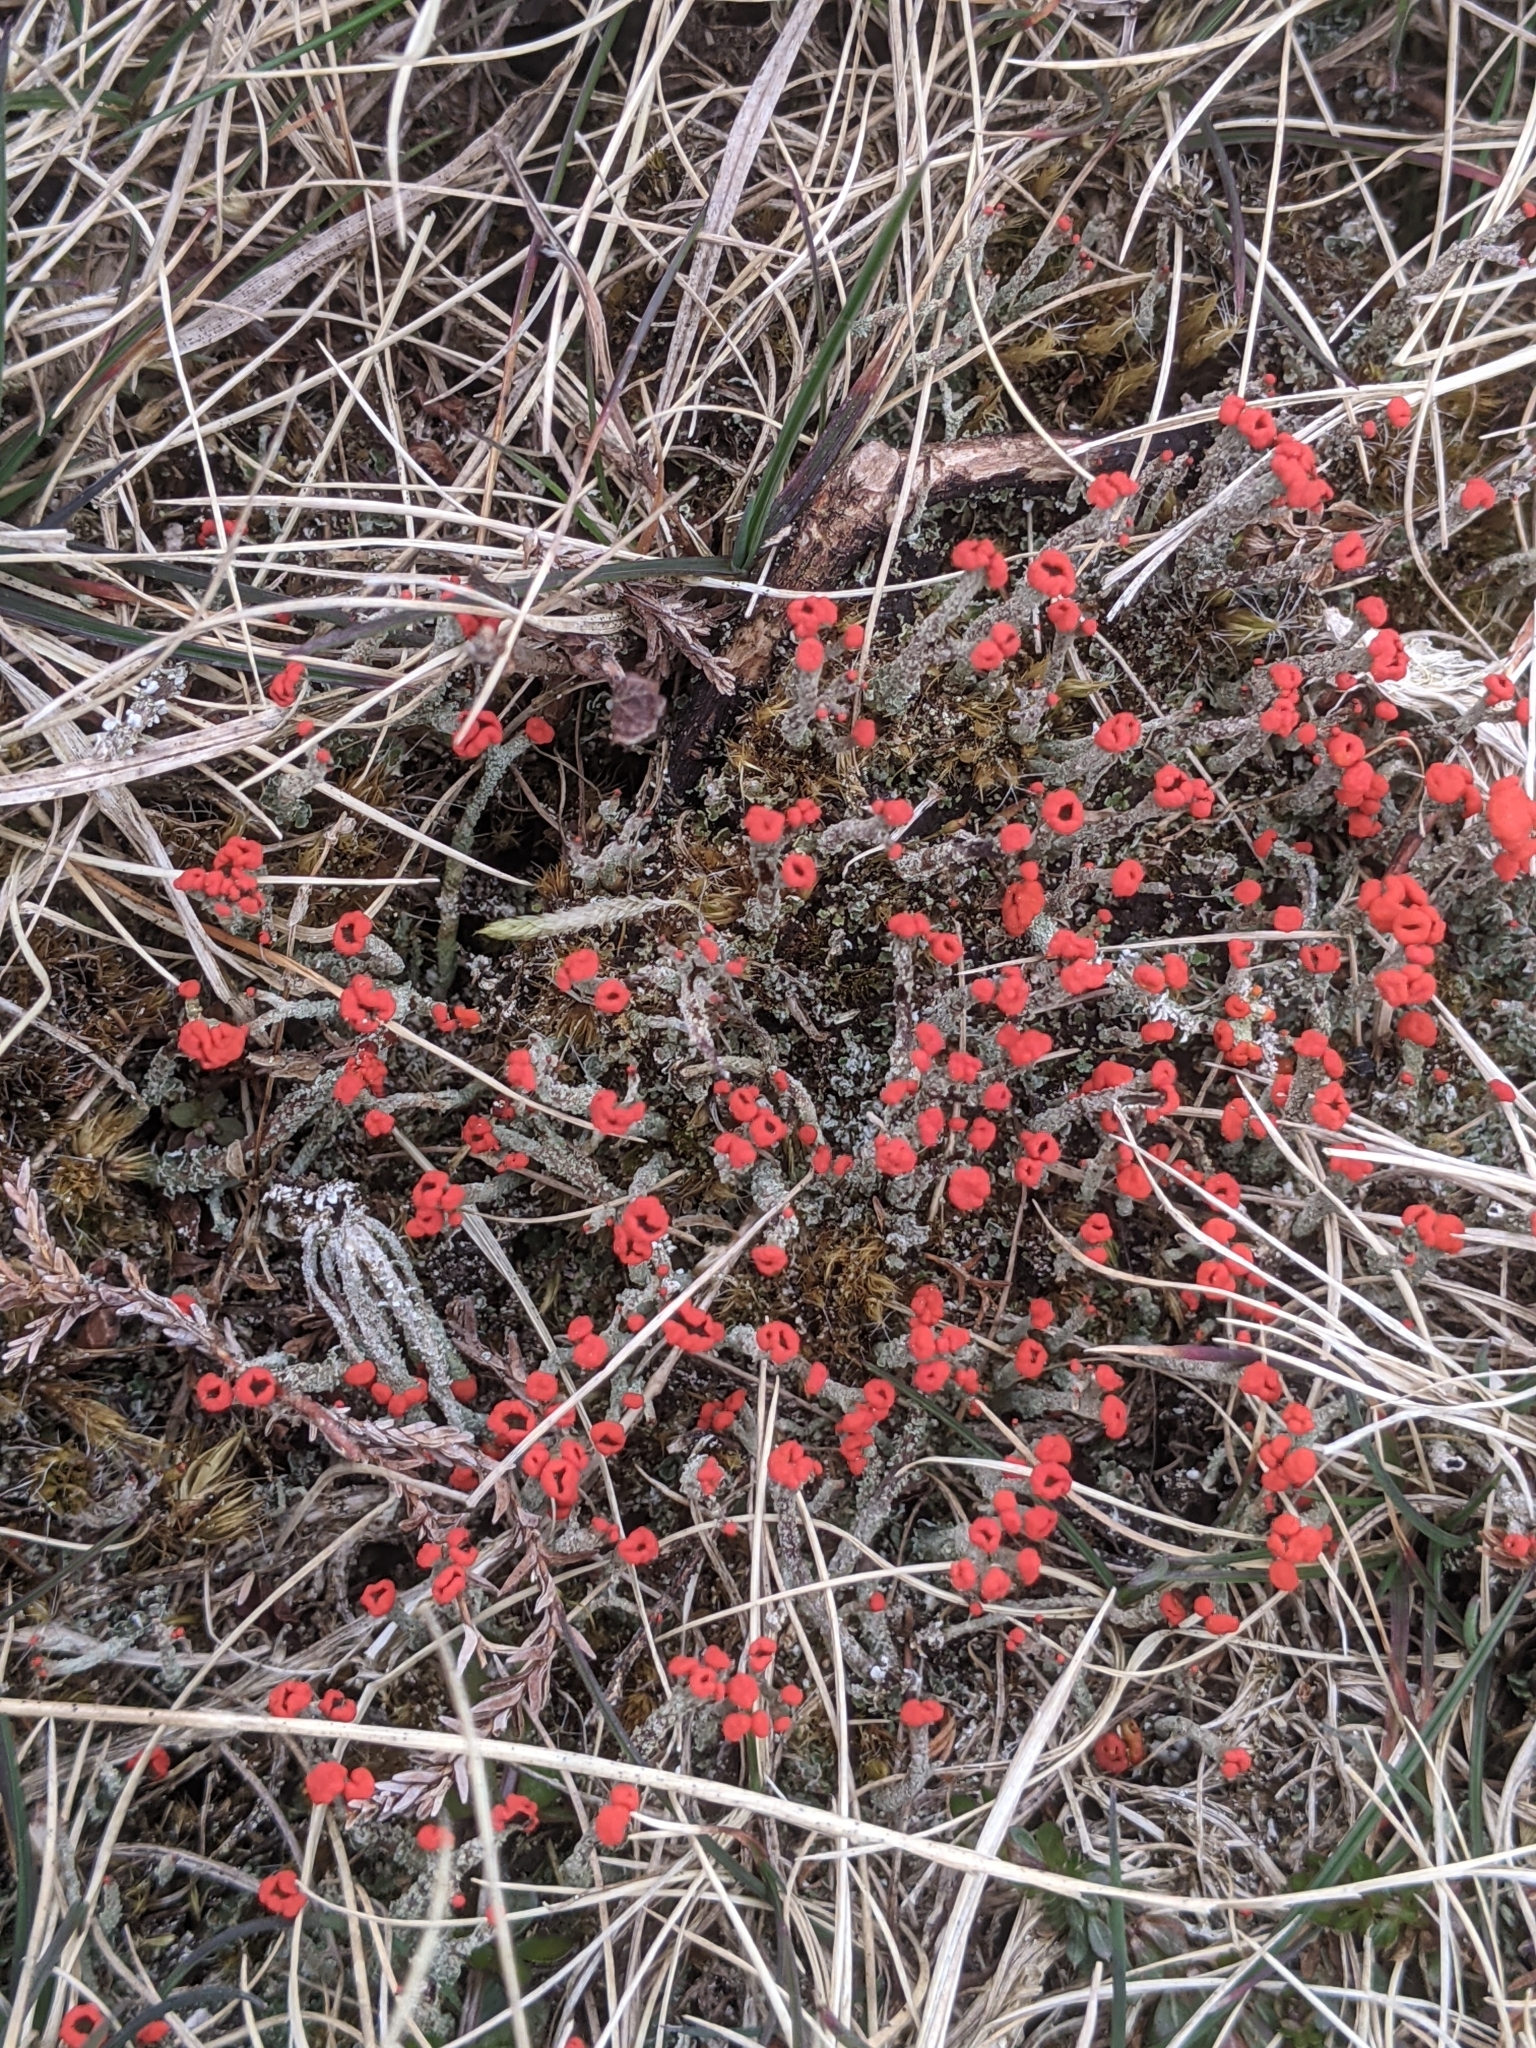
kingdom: Fungi
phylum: Ascomycota
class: Lecanoromycetes
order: Lecanorales
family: Cladoniaceae
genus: Cladonia
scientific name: Cladonia floerkeana
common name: Gritty british soldiers lichen
